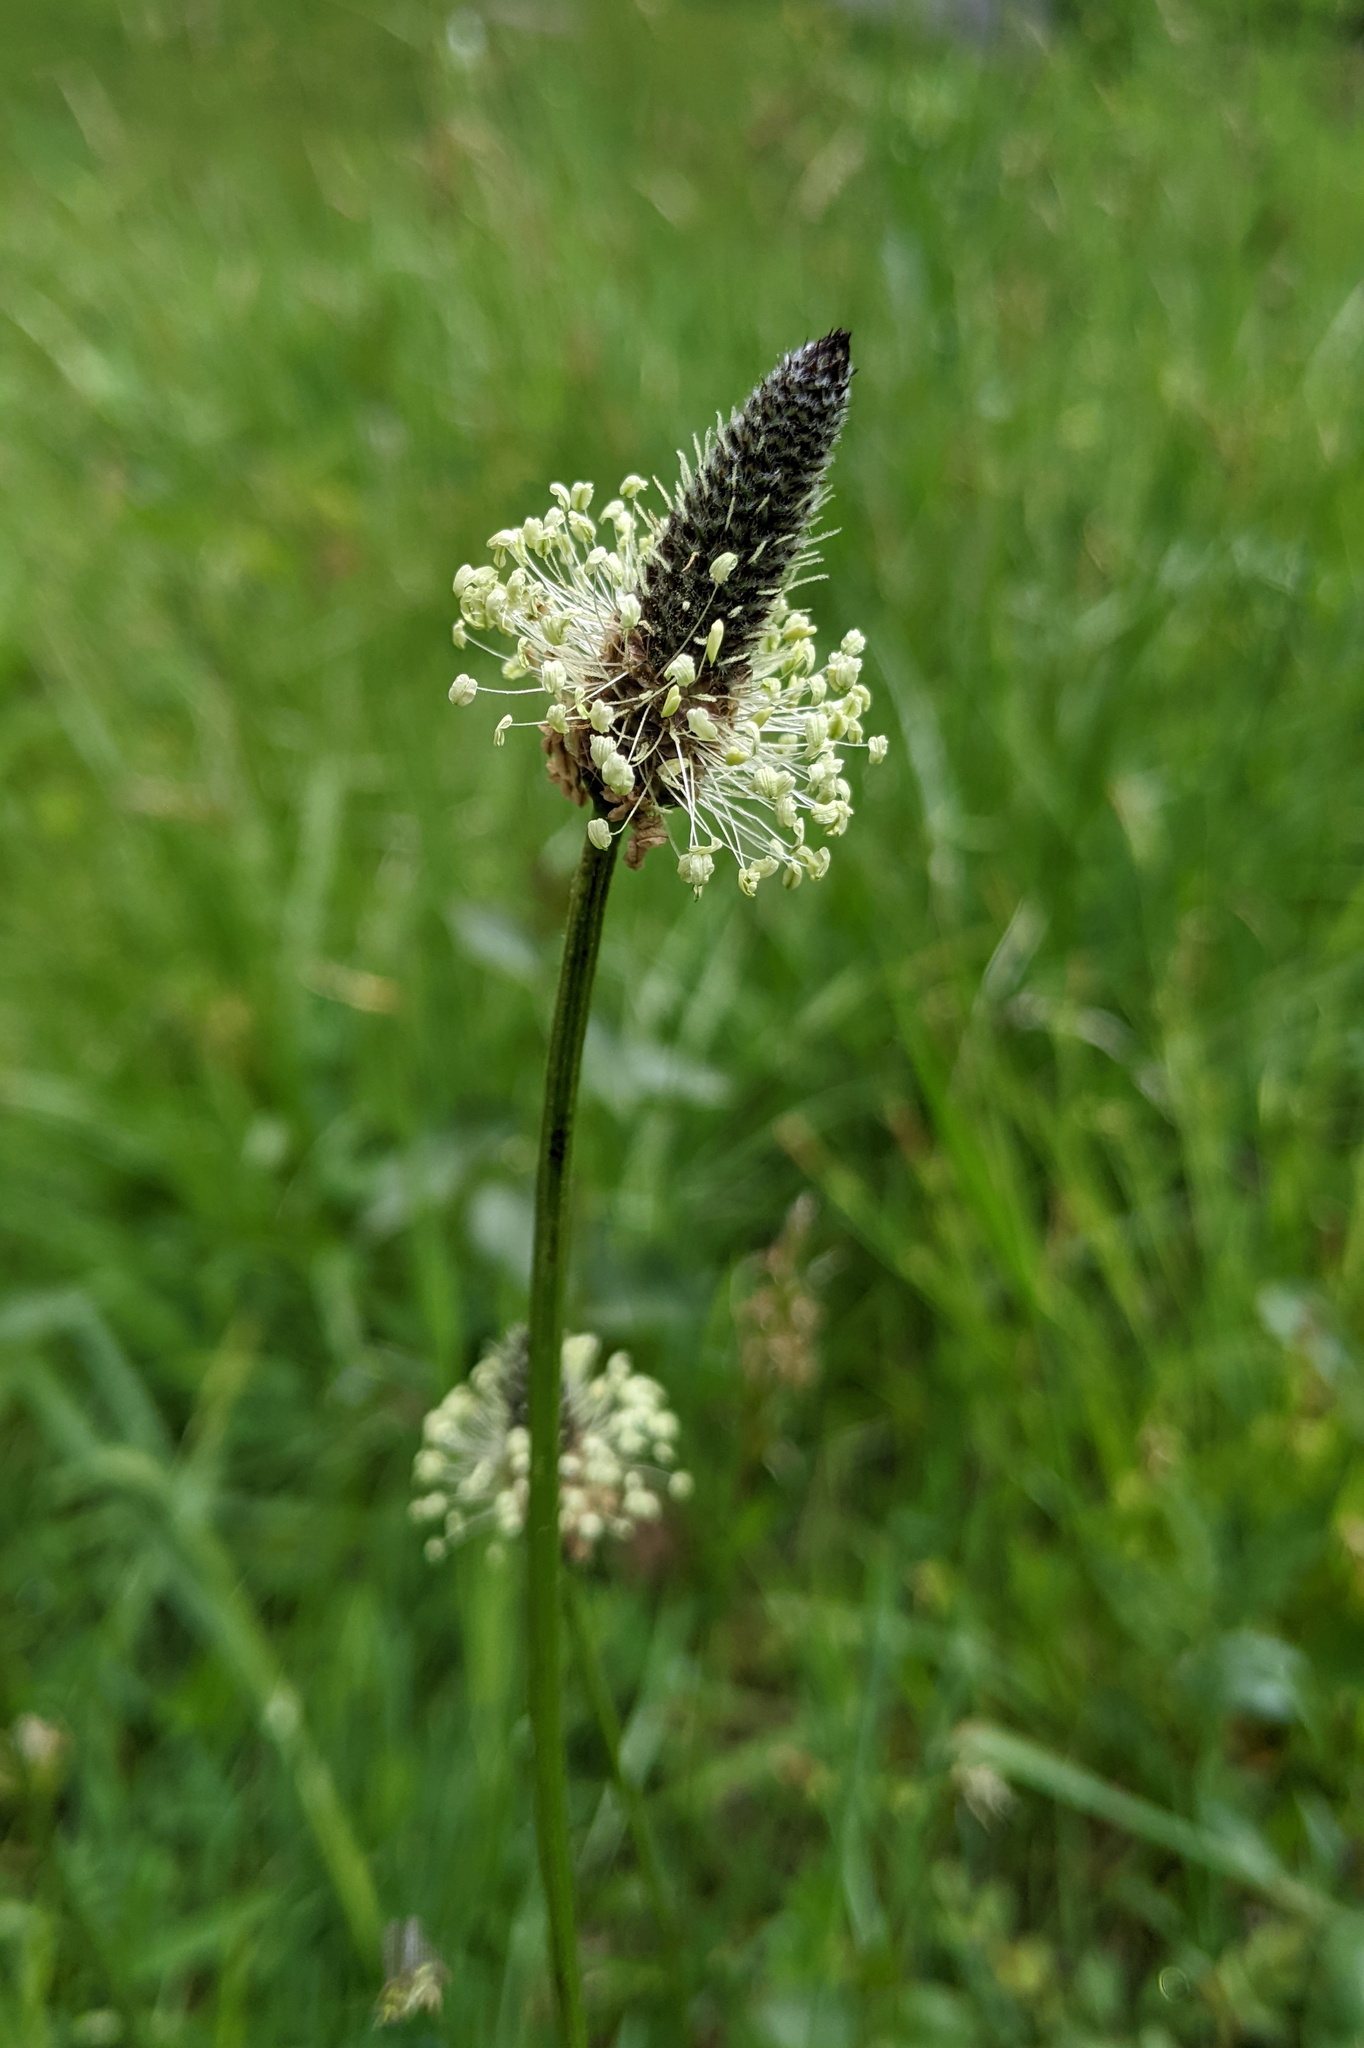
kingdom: Plantae
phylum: Tracheophyta
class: Magnoliopsida
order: Lamiales
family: Plantaginaceae
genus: Plantago
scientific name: Plantago lanceolata
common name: Ribwort plantain
